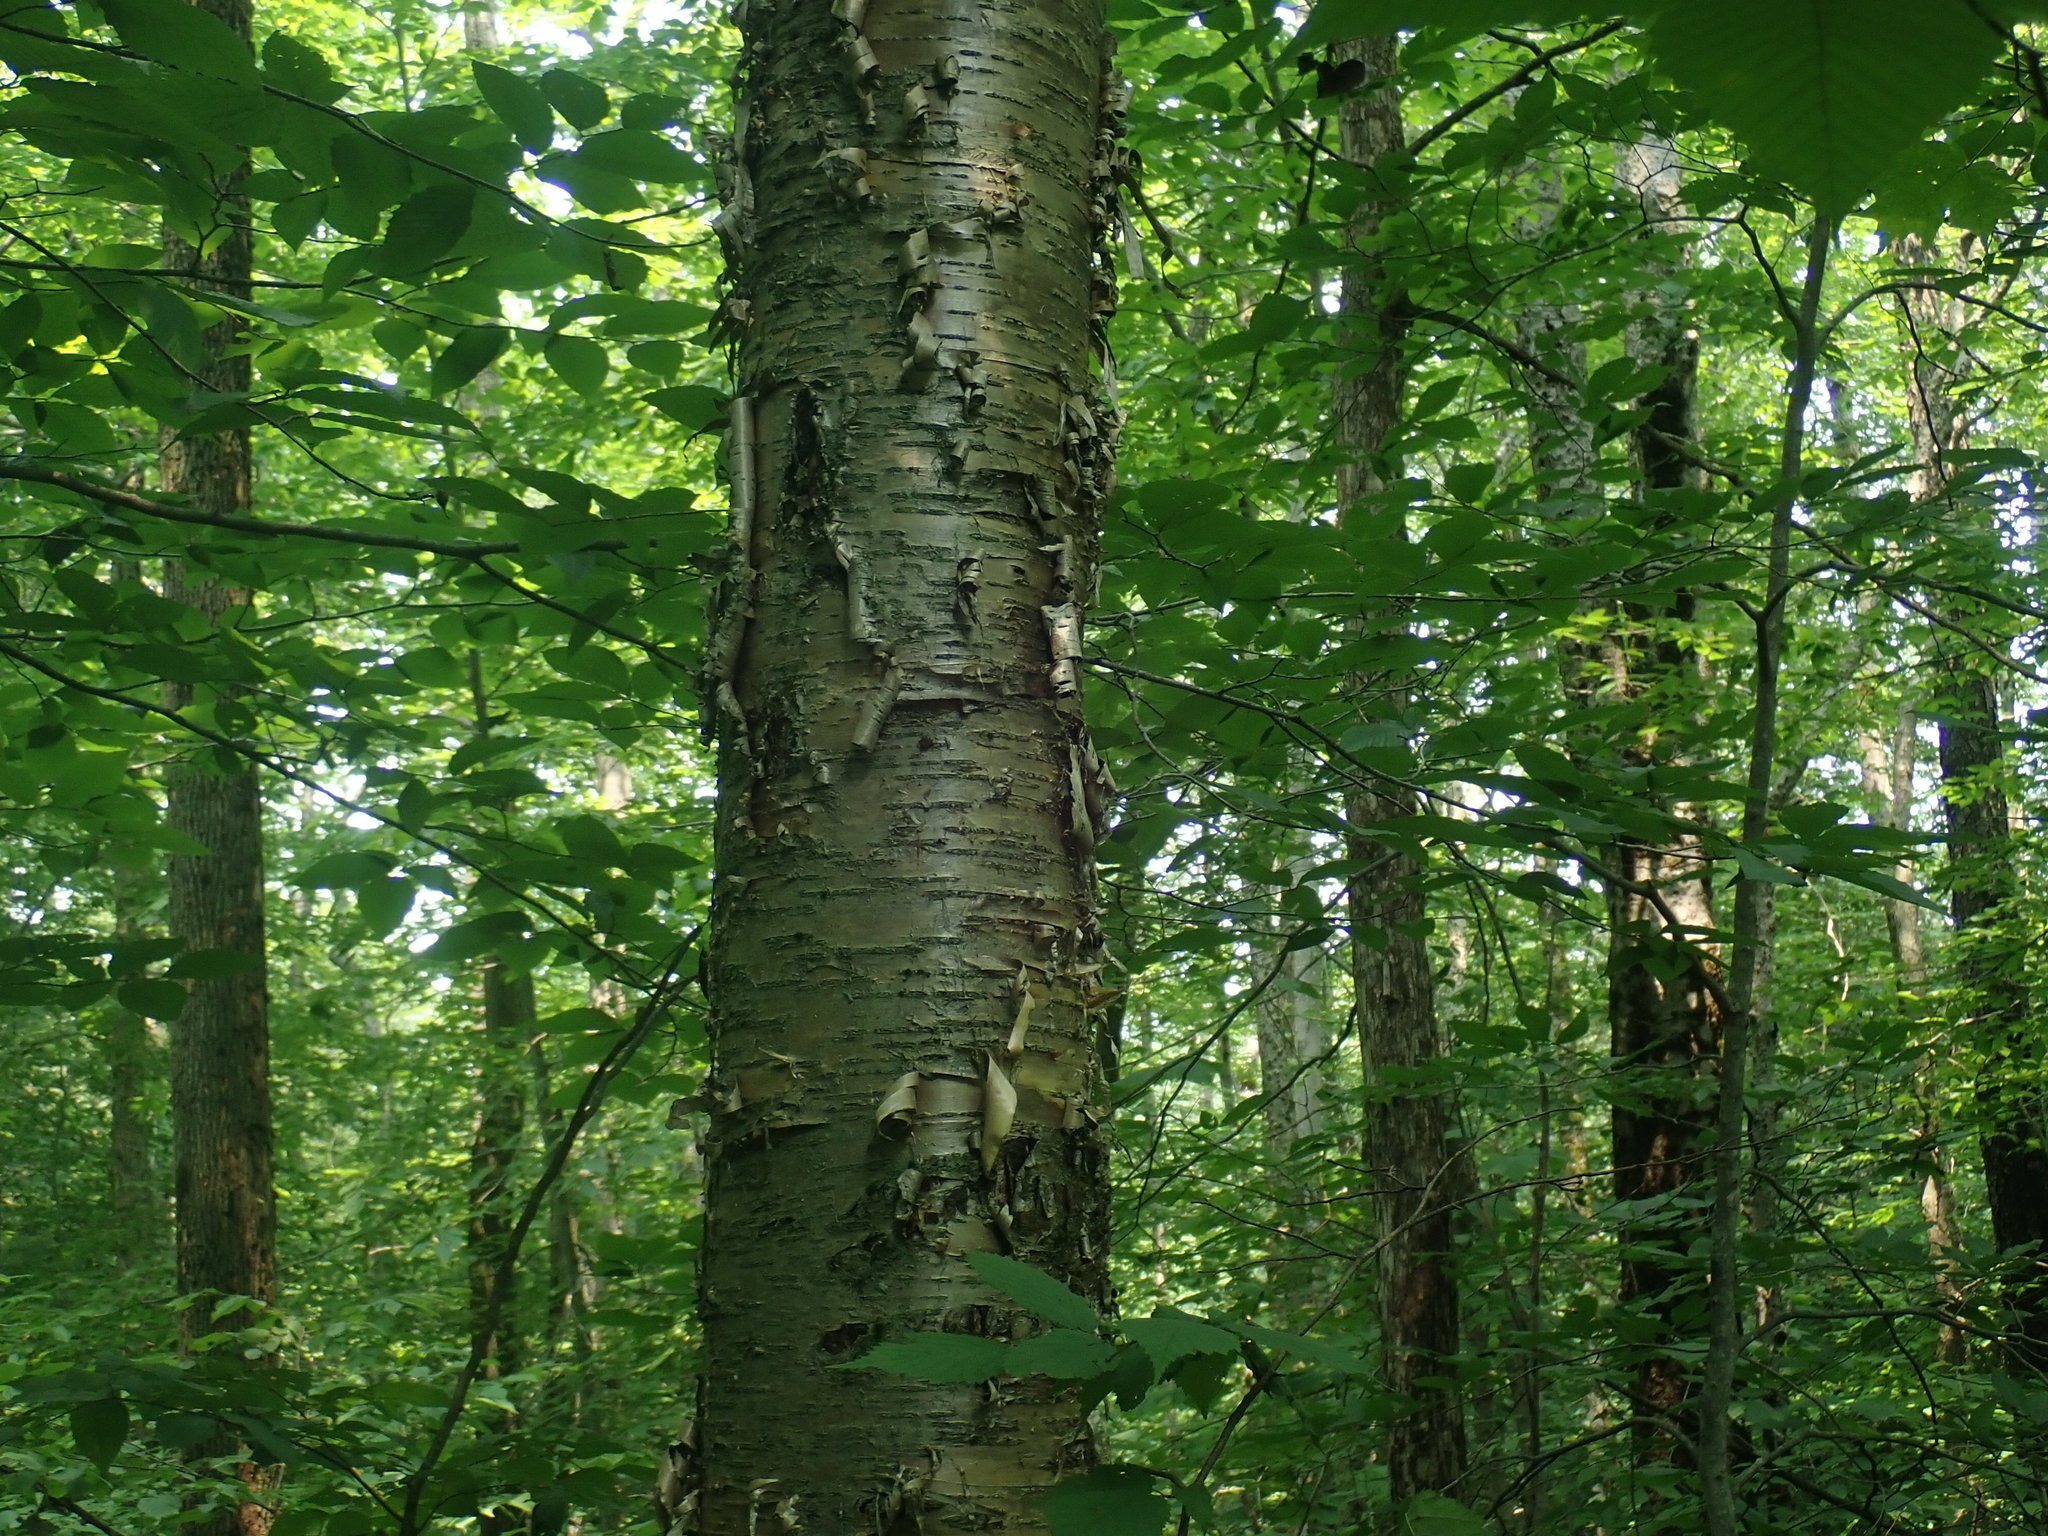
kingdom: Plantae
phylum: Tracheophyta
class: Magnoliopsida
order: Fagales
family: Betulaceae
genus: Betula
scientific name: Betula alleghaniensis
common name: Yellow birch
